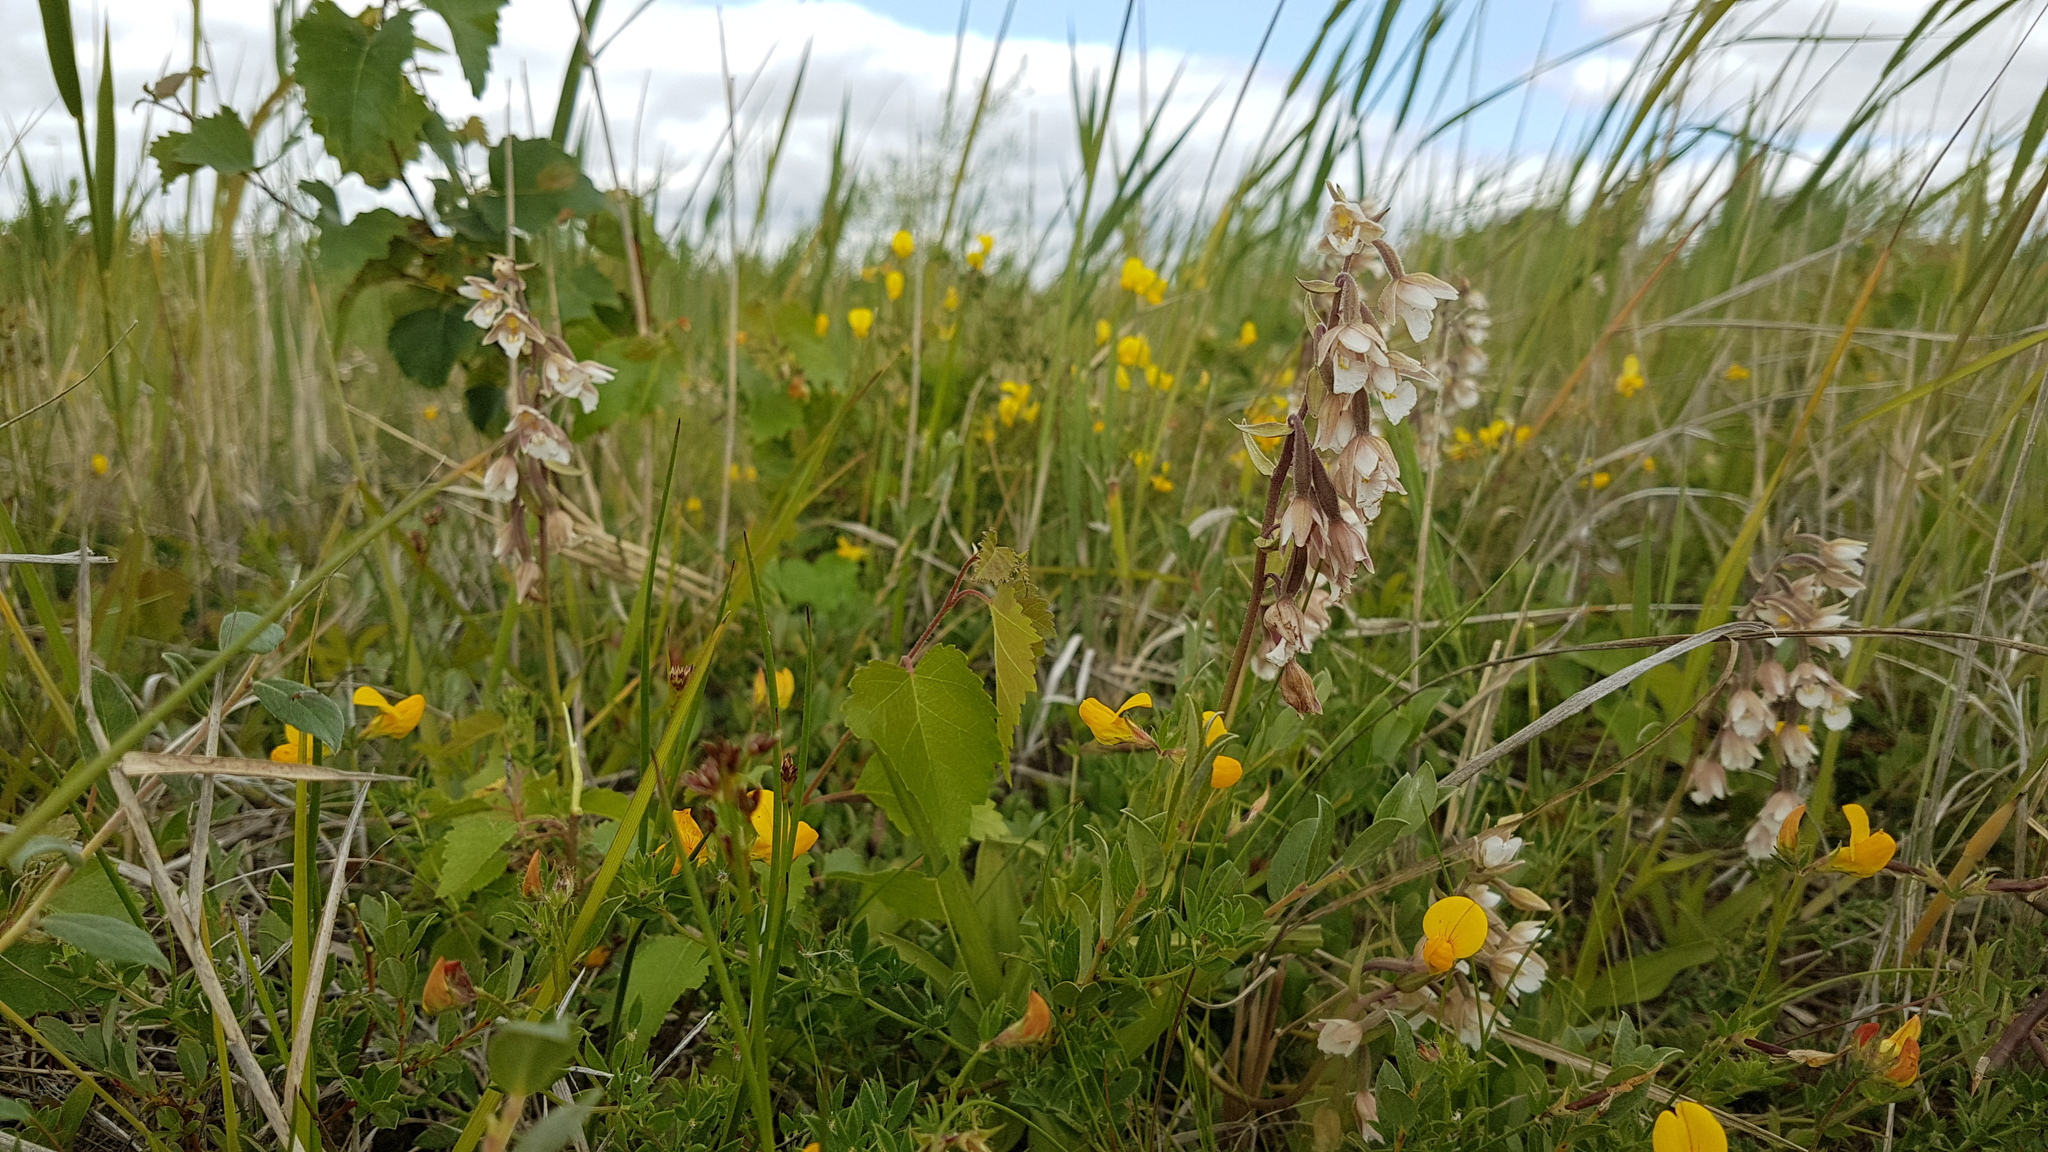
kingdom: Plantae
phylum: Tracheophyta
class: Liliopsida
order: Asparagales
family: Orchidaceae
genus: Epipactis
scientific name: Epipactis palustris
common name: Marsh helleborine
